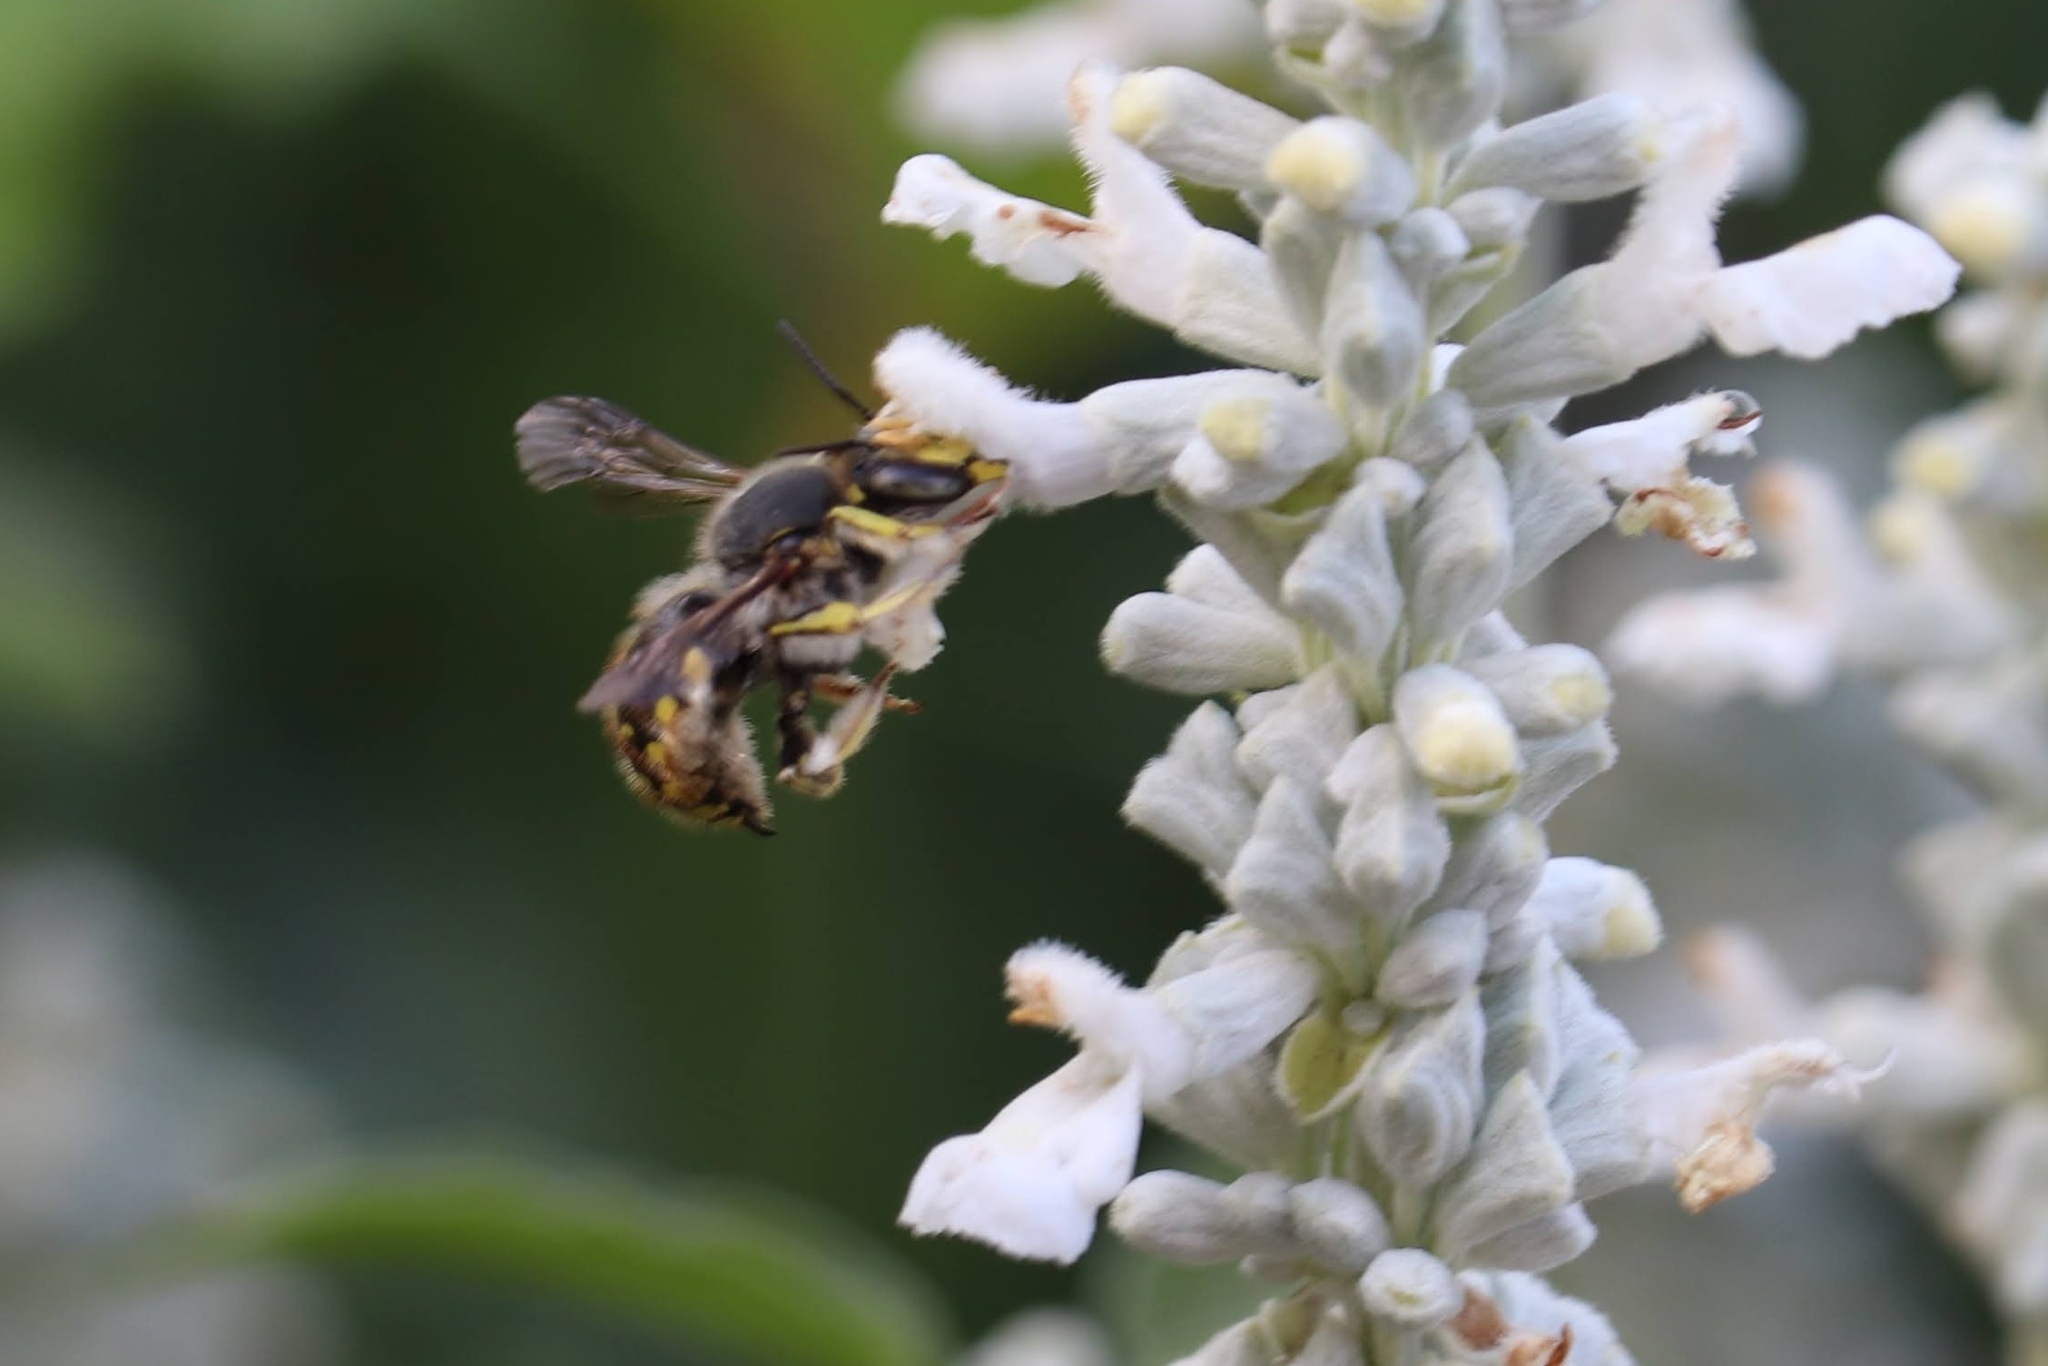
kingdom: Animalia
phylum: Arthropoda
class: Insecta
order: Hymenoptera
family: Megachilidae
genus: Anthidium
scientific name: Anthidium manicatum
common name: Wool carder bee
